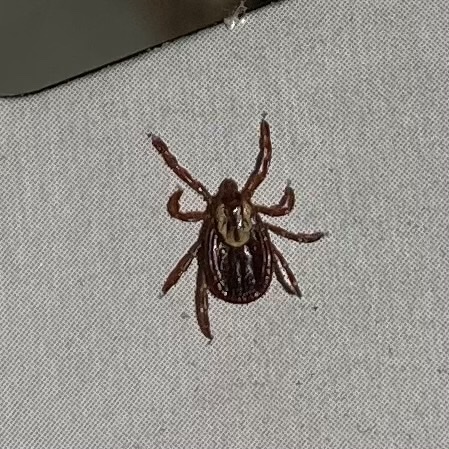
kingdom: Animalia
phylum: Arthropoda
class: Arachnida
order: Ixodida
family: Ixodidae
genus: Dermacentor
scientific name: Dermacentor variabilis
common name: American dog tick
